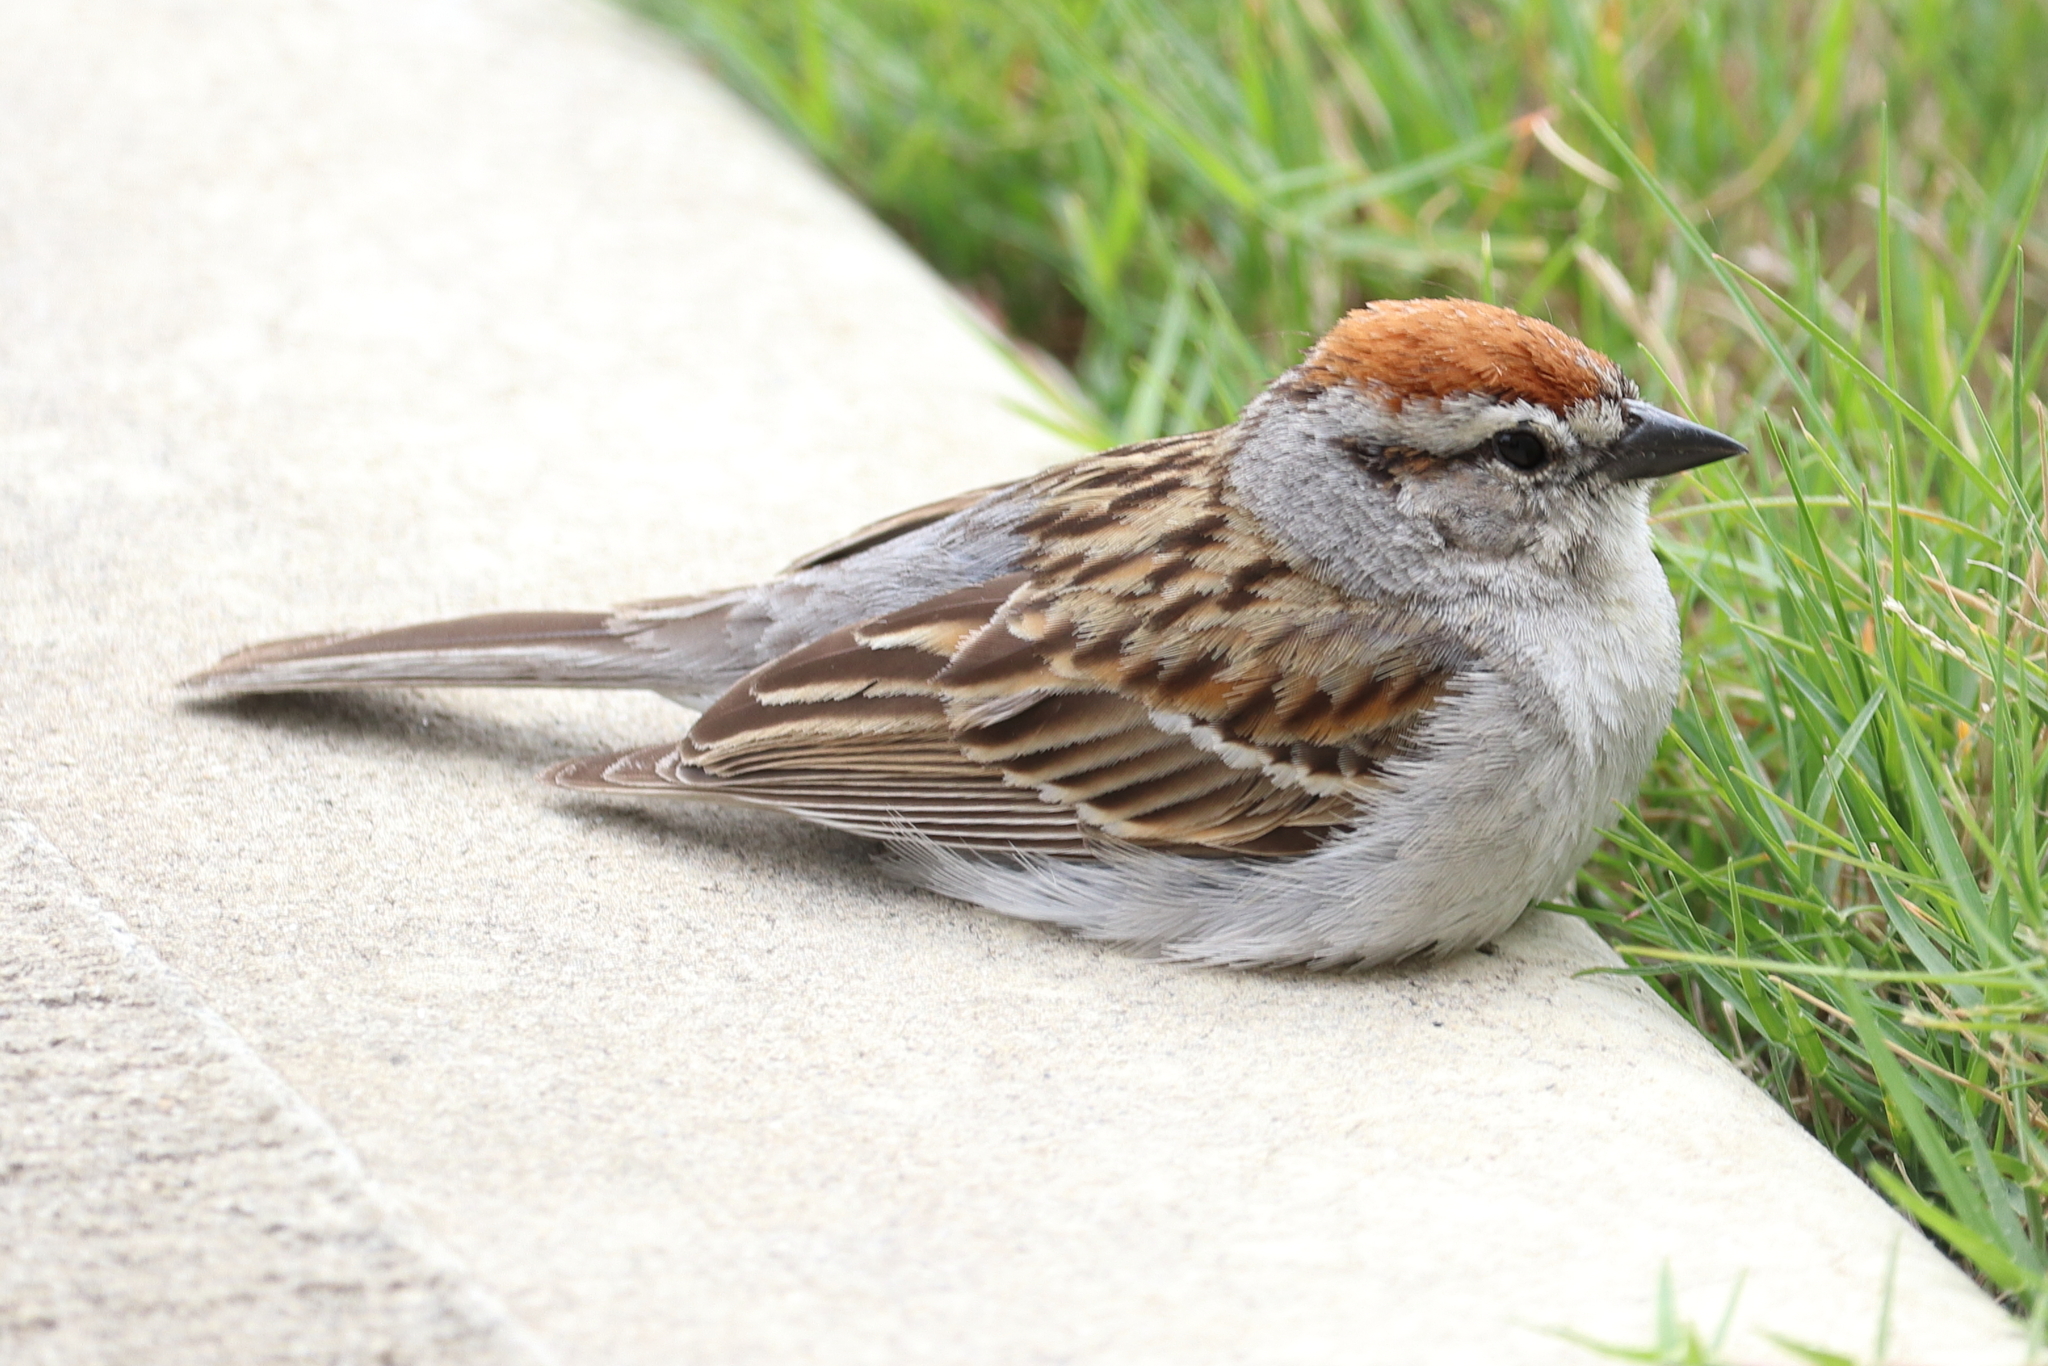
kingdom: Animalia
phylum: Chordata
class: Aves
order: Passeriformes
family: Passerellidae
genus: Spizella
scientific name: Spizella passerina
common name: Chipping sparrow
